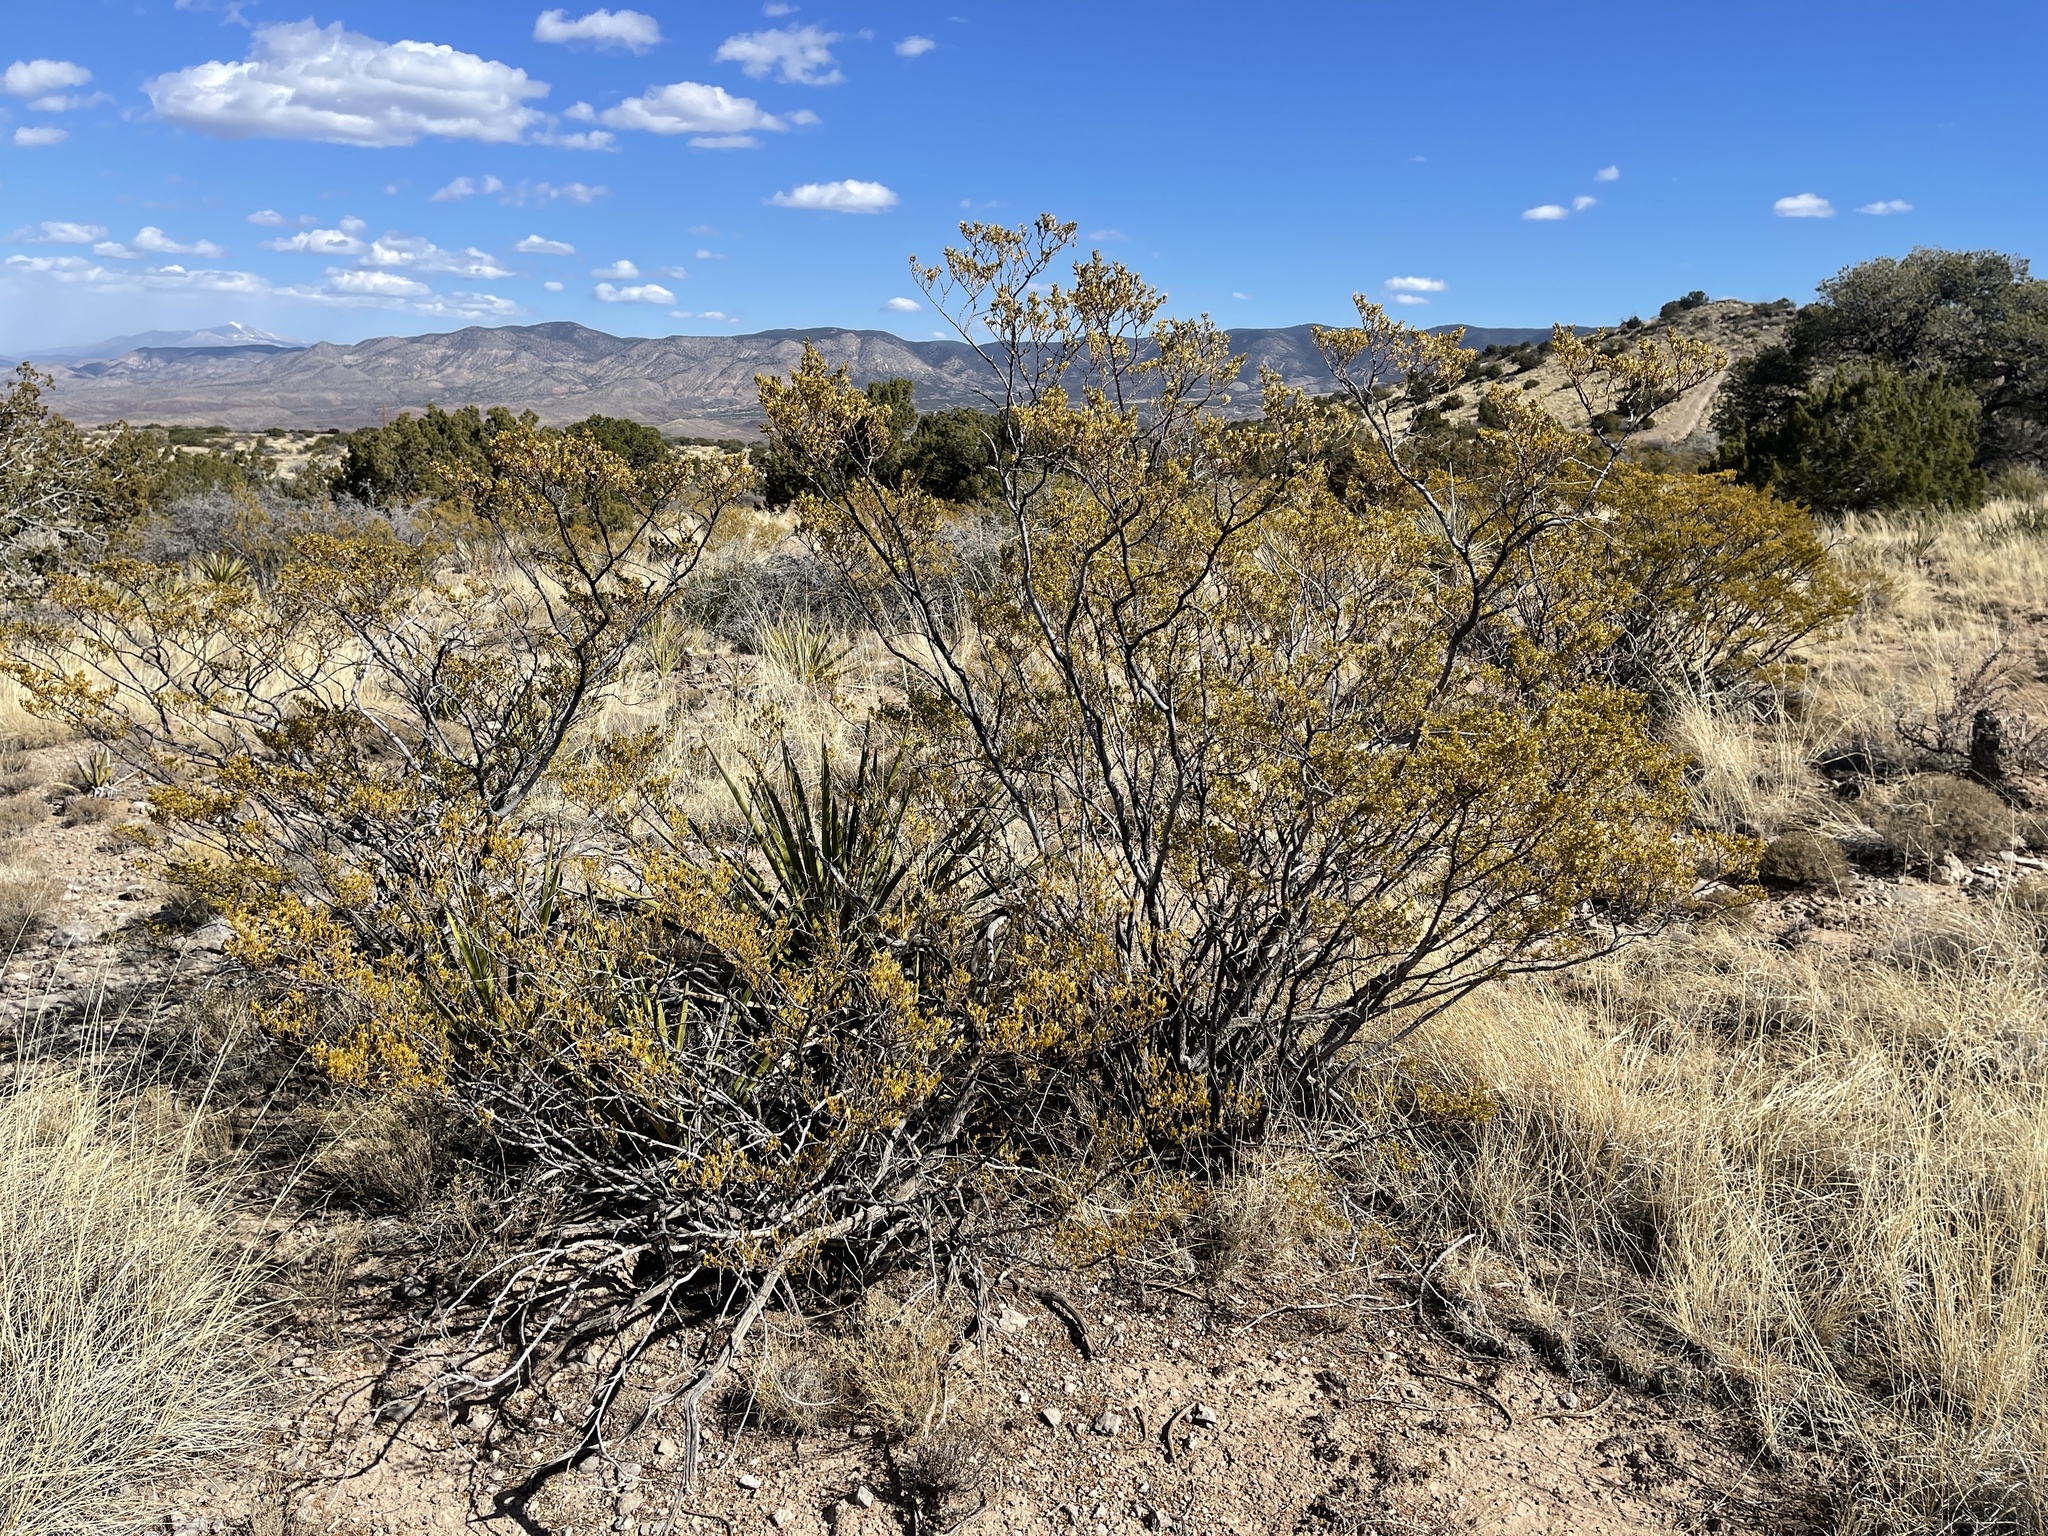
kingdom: Plantae
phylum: Tracheophyta
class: Magnoliopsida
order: Zygophyllales
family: Zygophyllaceae
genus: Larrea
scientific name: Larrea tridentata
